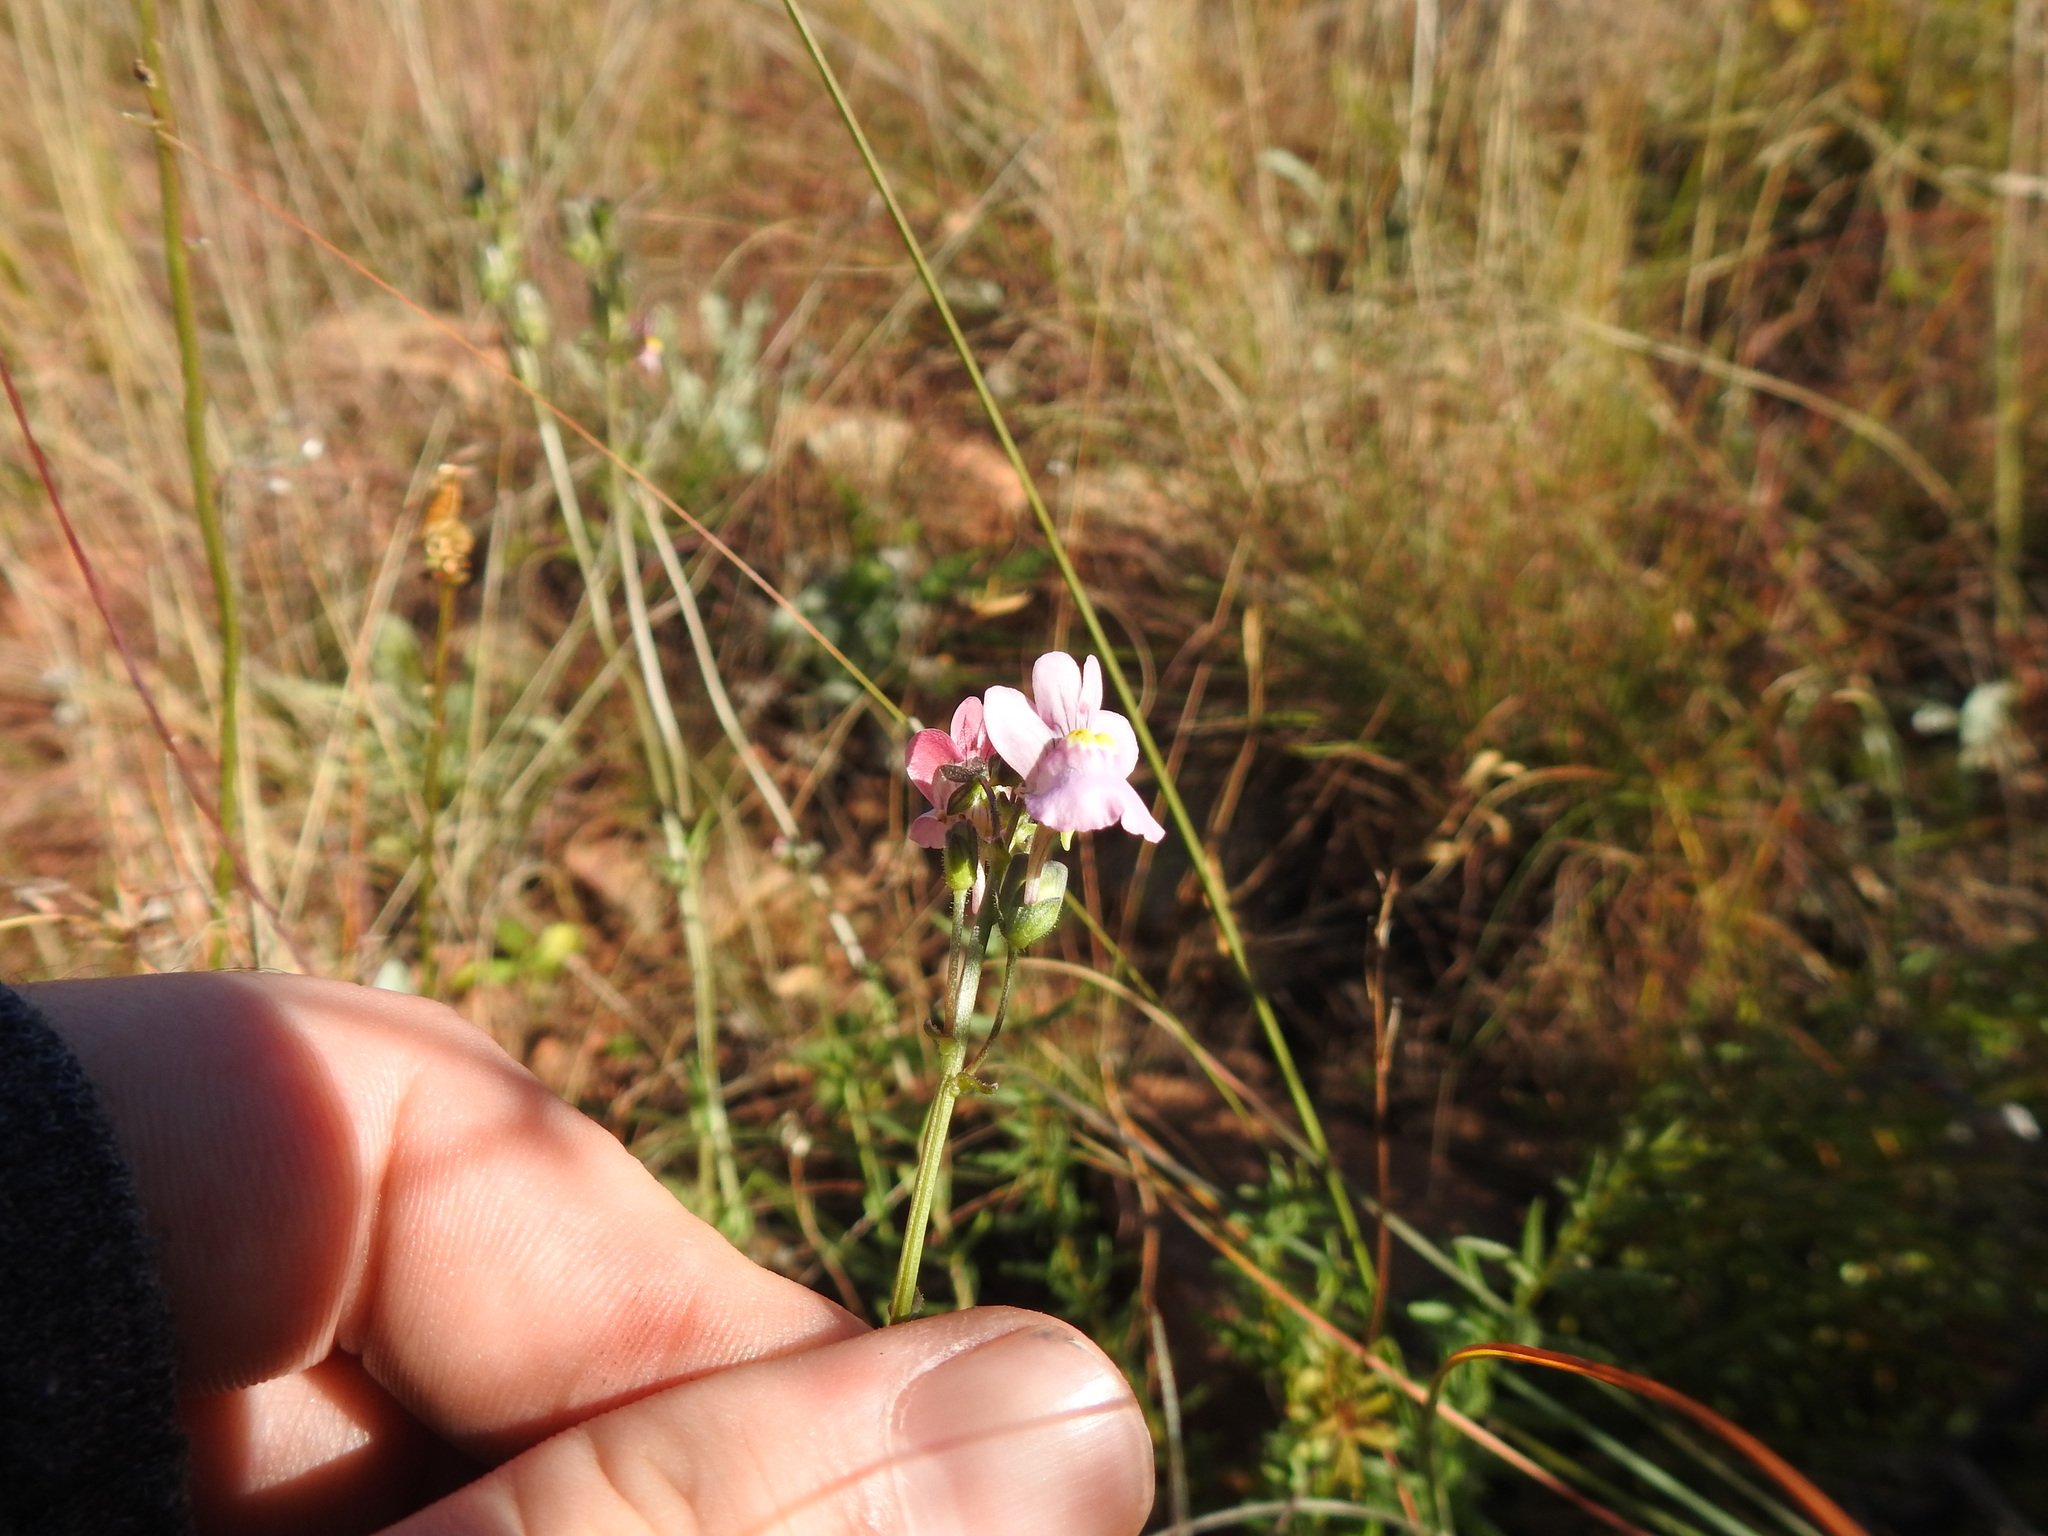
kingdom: Plantae
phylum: Tracheophyta
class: Magnoliopsida
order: Lamiales
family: Scrophulariaceae
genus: Nemesia
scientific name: Nemesia fruticans
